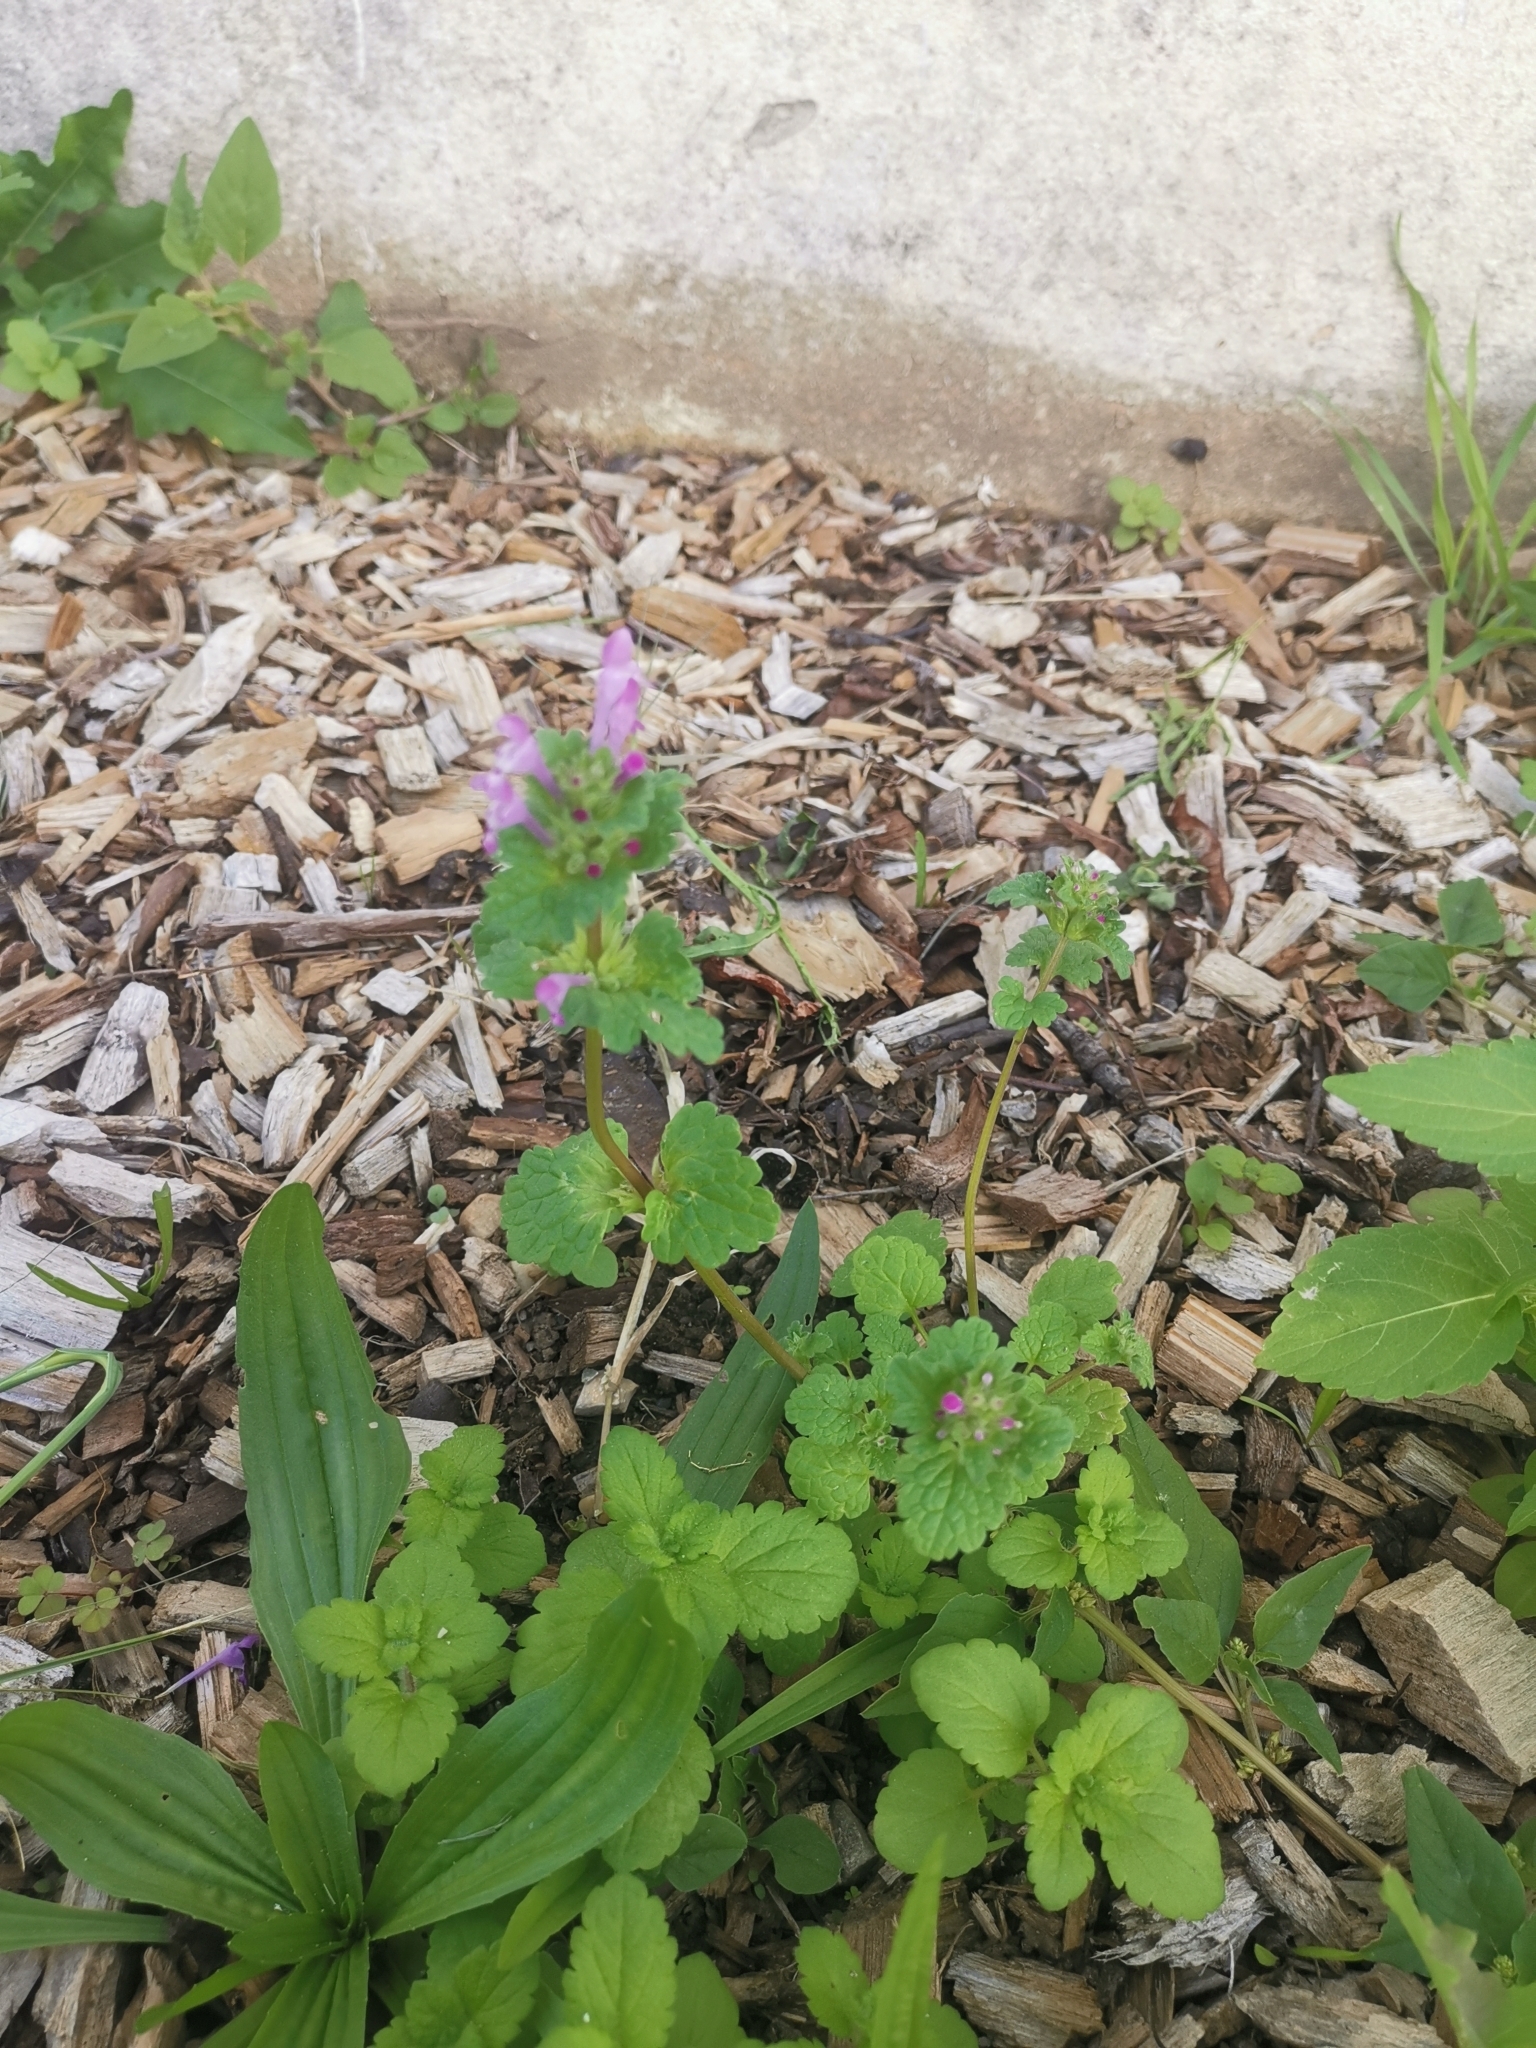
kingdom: Plantae
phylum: Tracheophyta
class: Magnoliopsida
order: Lamiales
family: Lamiaceae
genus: Lamium
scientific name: Lamium amplexicaule
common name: Henbit dead-nettle
